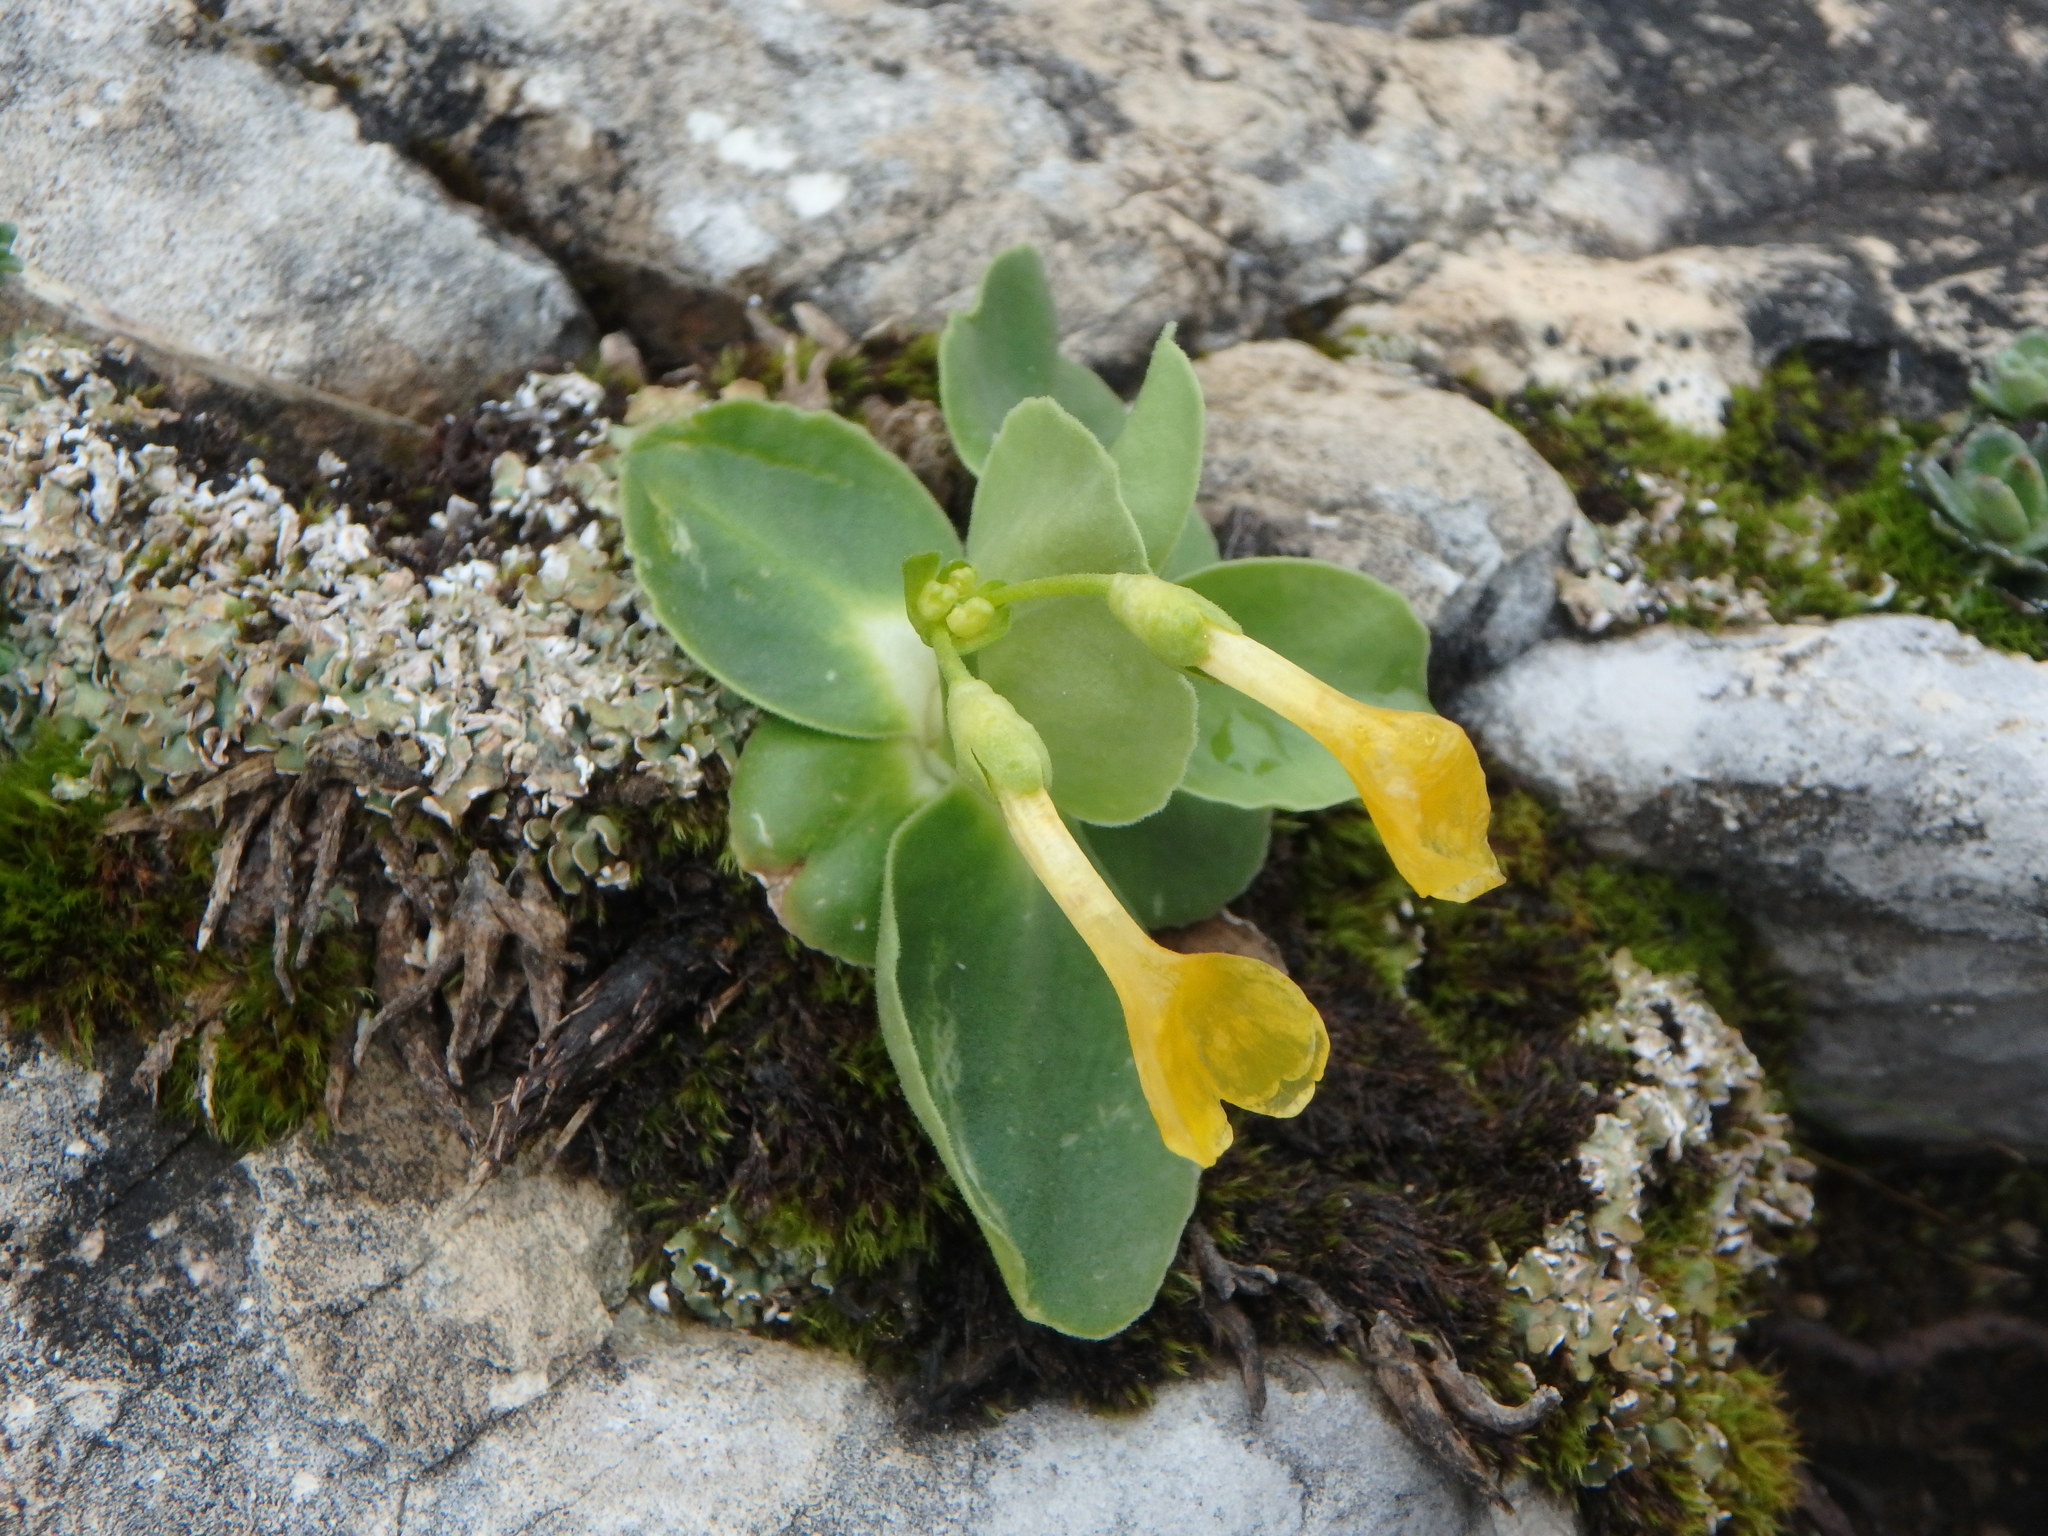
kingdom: Plantae
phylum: Tracheophyta
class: Magnoliopsida
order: Ericales
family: Primulaceae
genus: Primula
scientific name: Primula auricula
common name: Auricula
